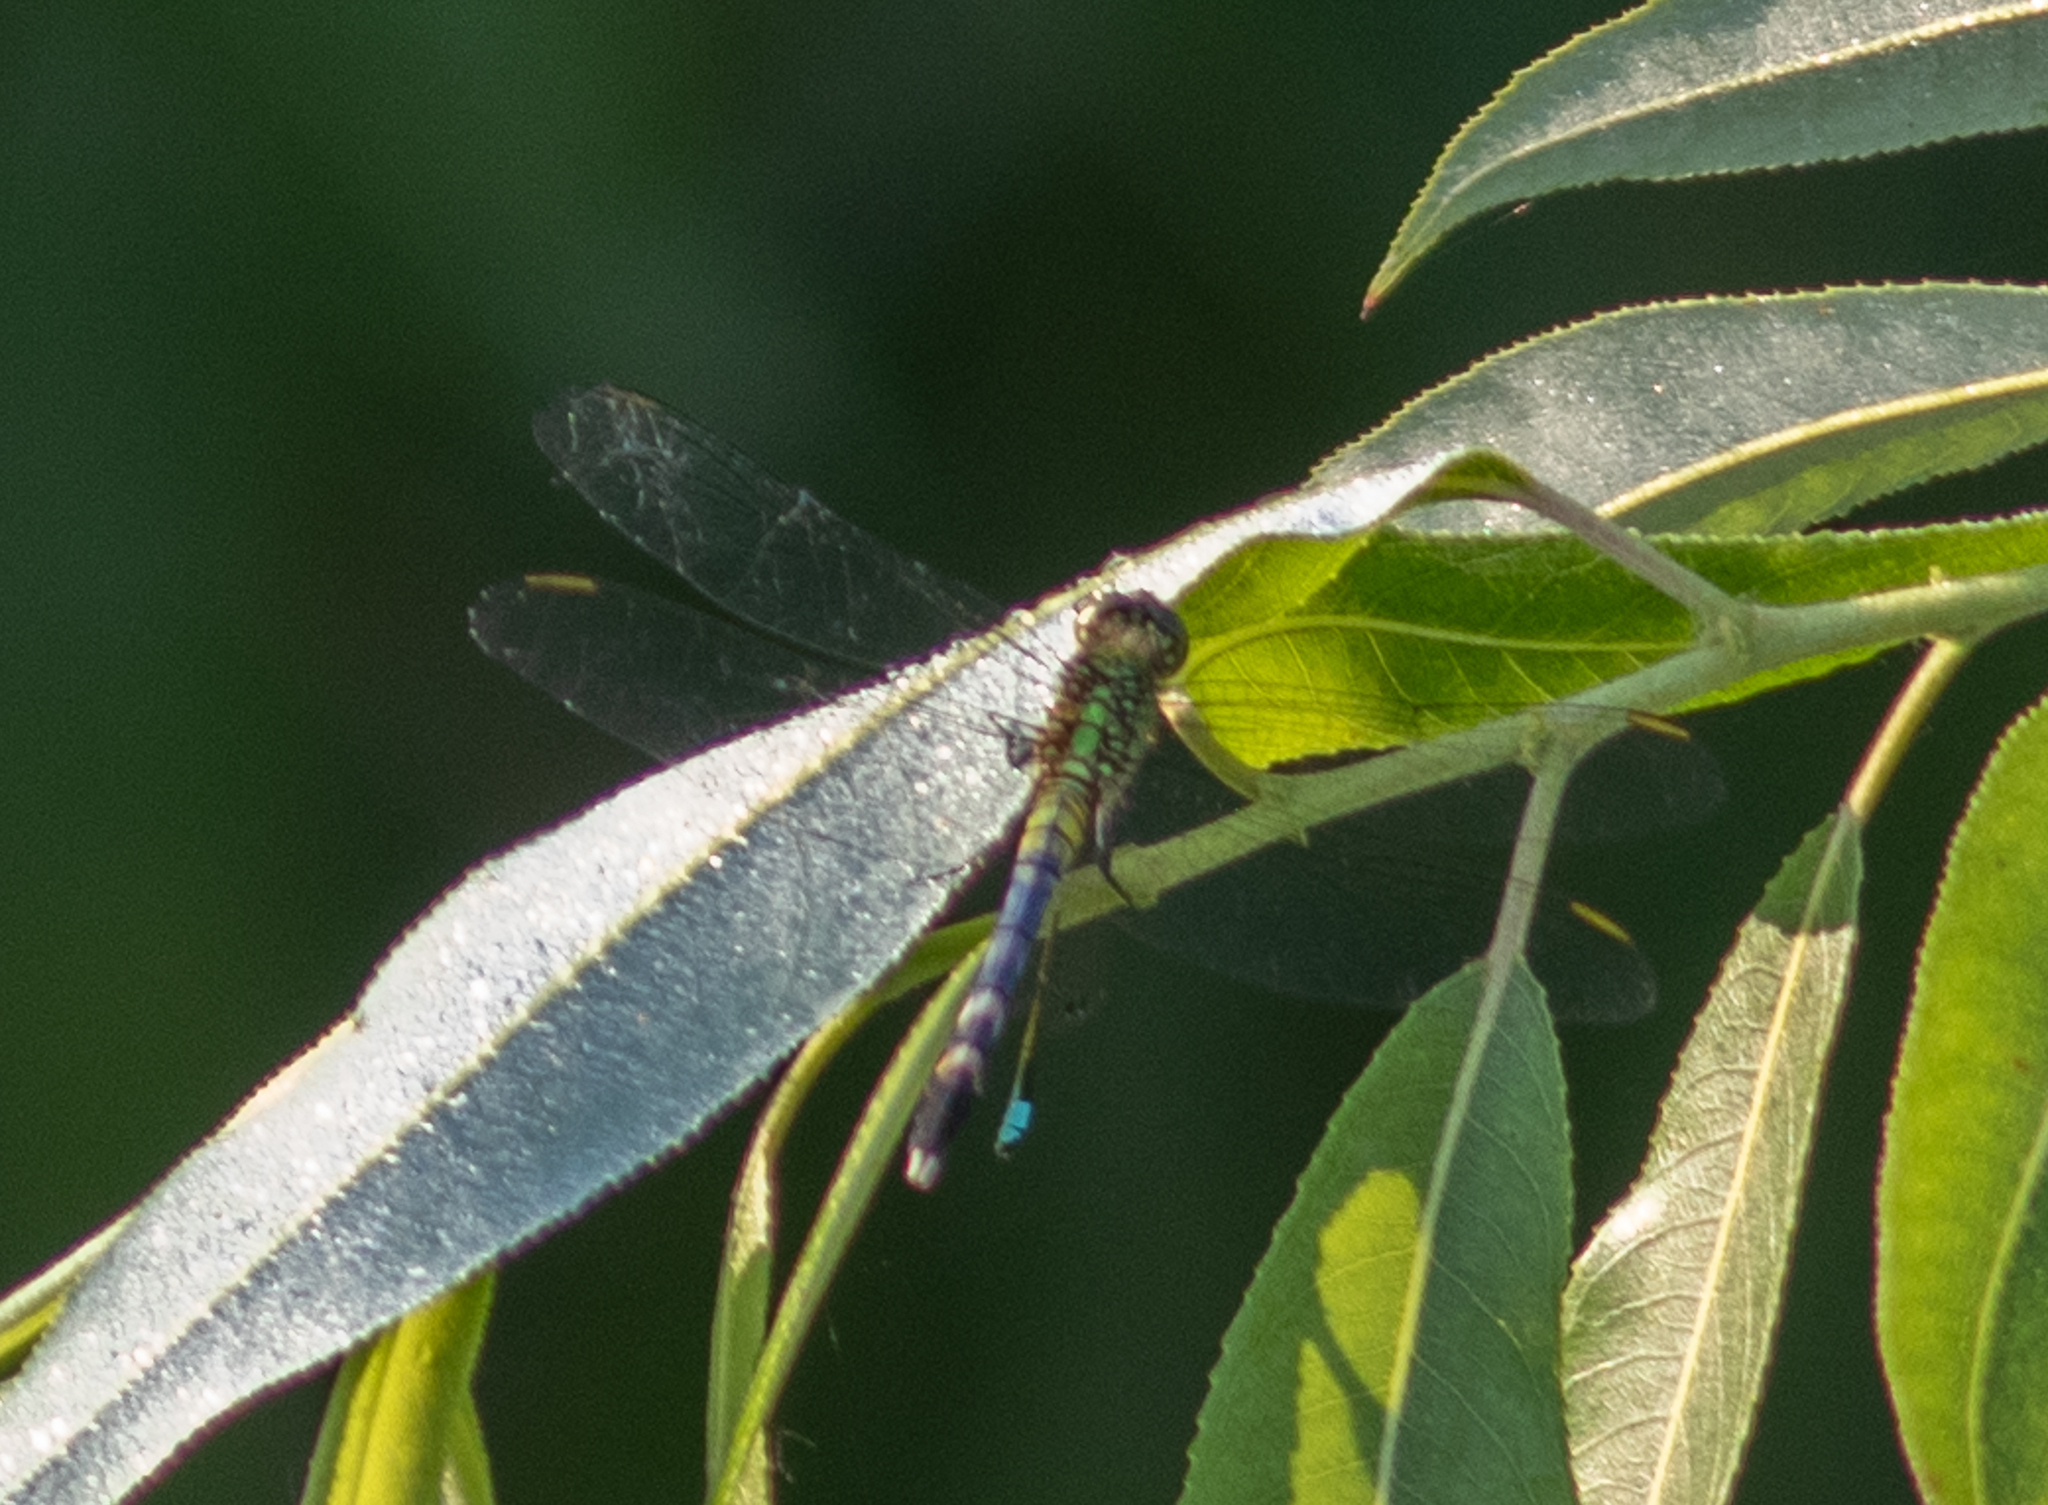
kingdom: Animalia
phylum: Arthropoda
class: Insecta
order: Odonata
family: Libellulidae
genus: Erythemis
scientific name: Erythemis simplicicollis
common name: Eastern pondhawk
